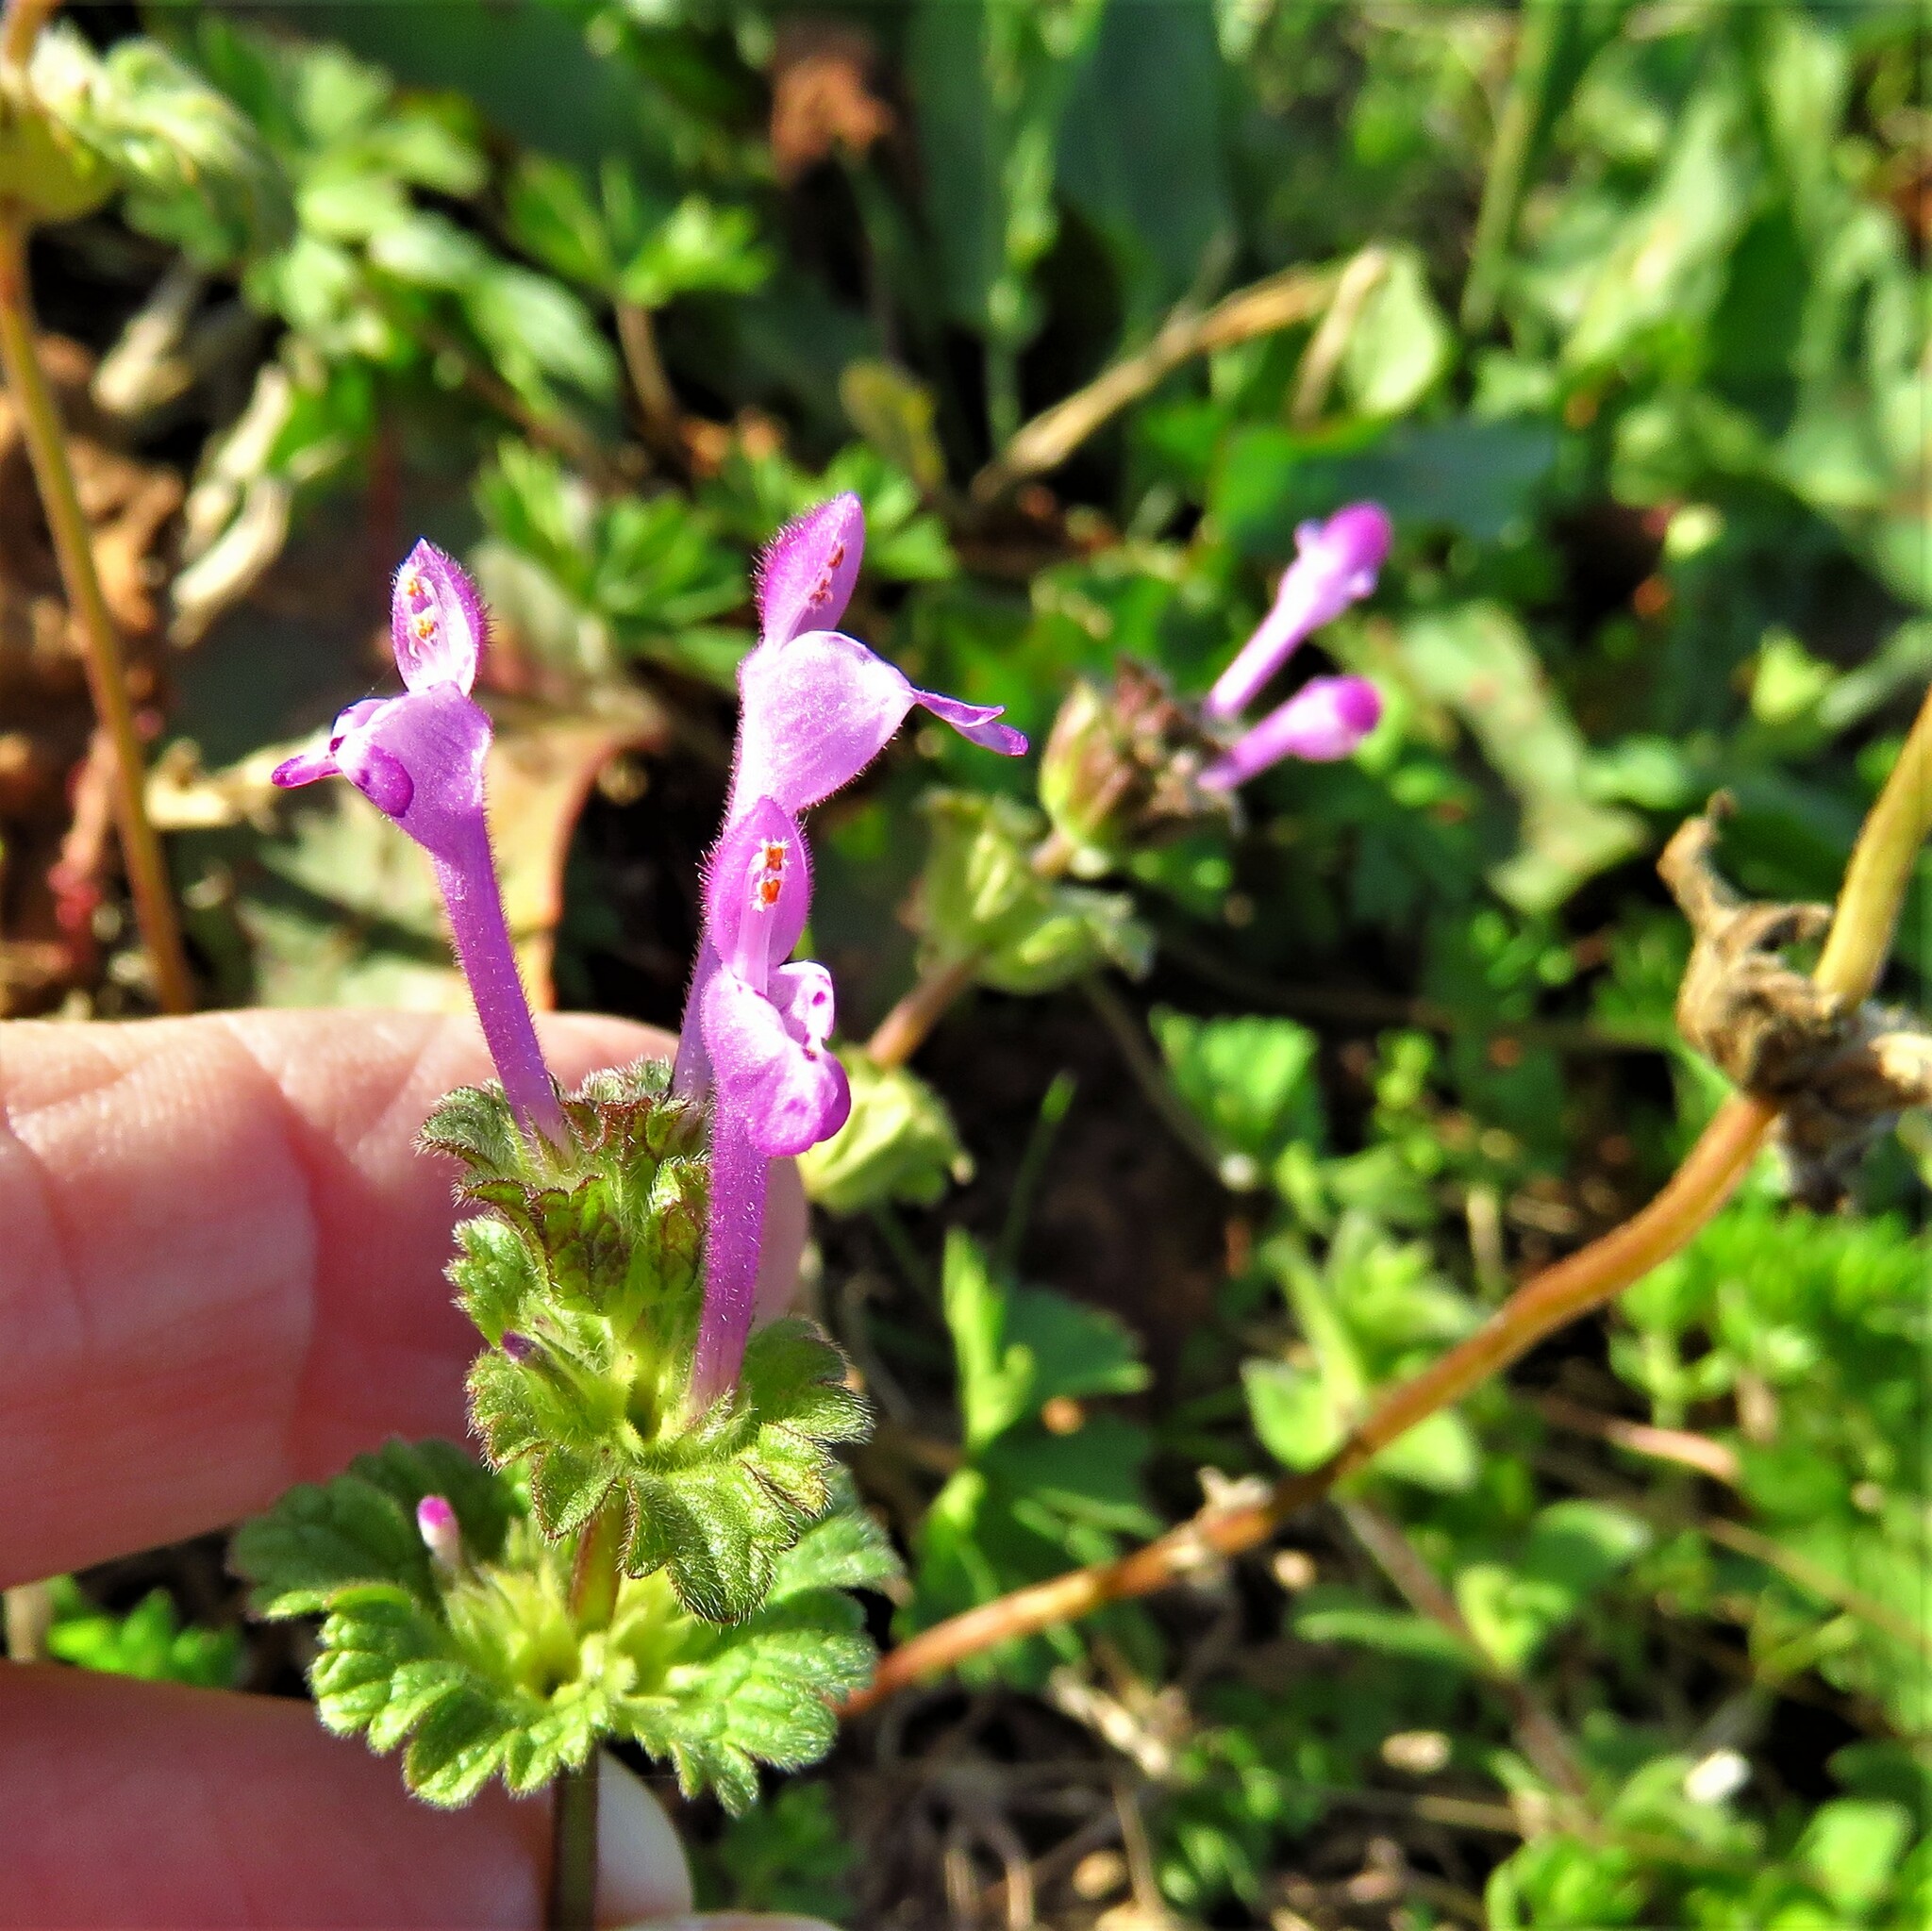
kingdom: Plantae
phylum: Tracheophyta
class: Magnoliopsida
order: Lamiales
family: Lamiaceae
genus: Lamium
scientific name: Lamium amplexicaule
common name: Henbit dead-nettle
